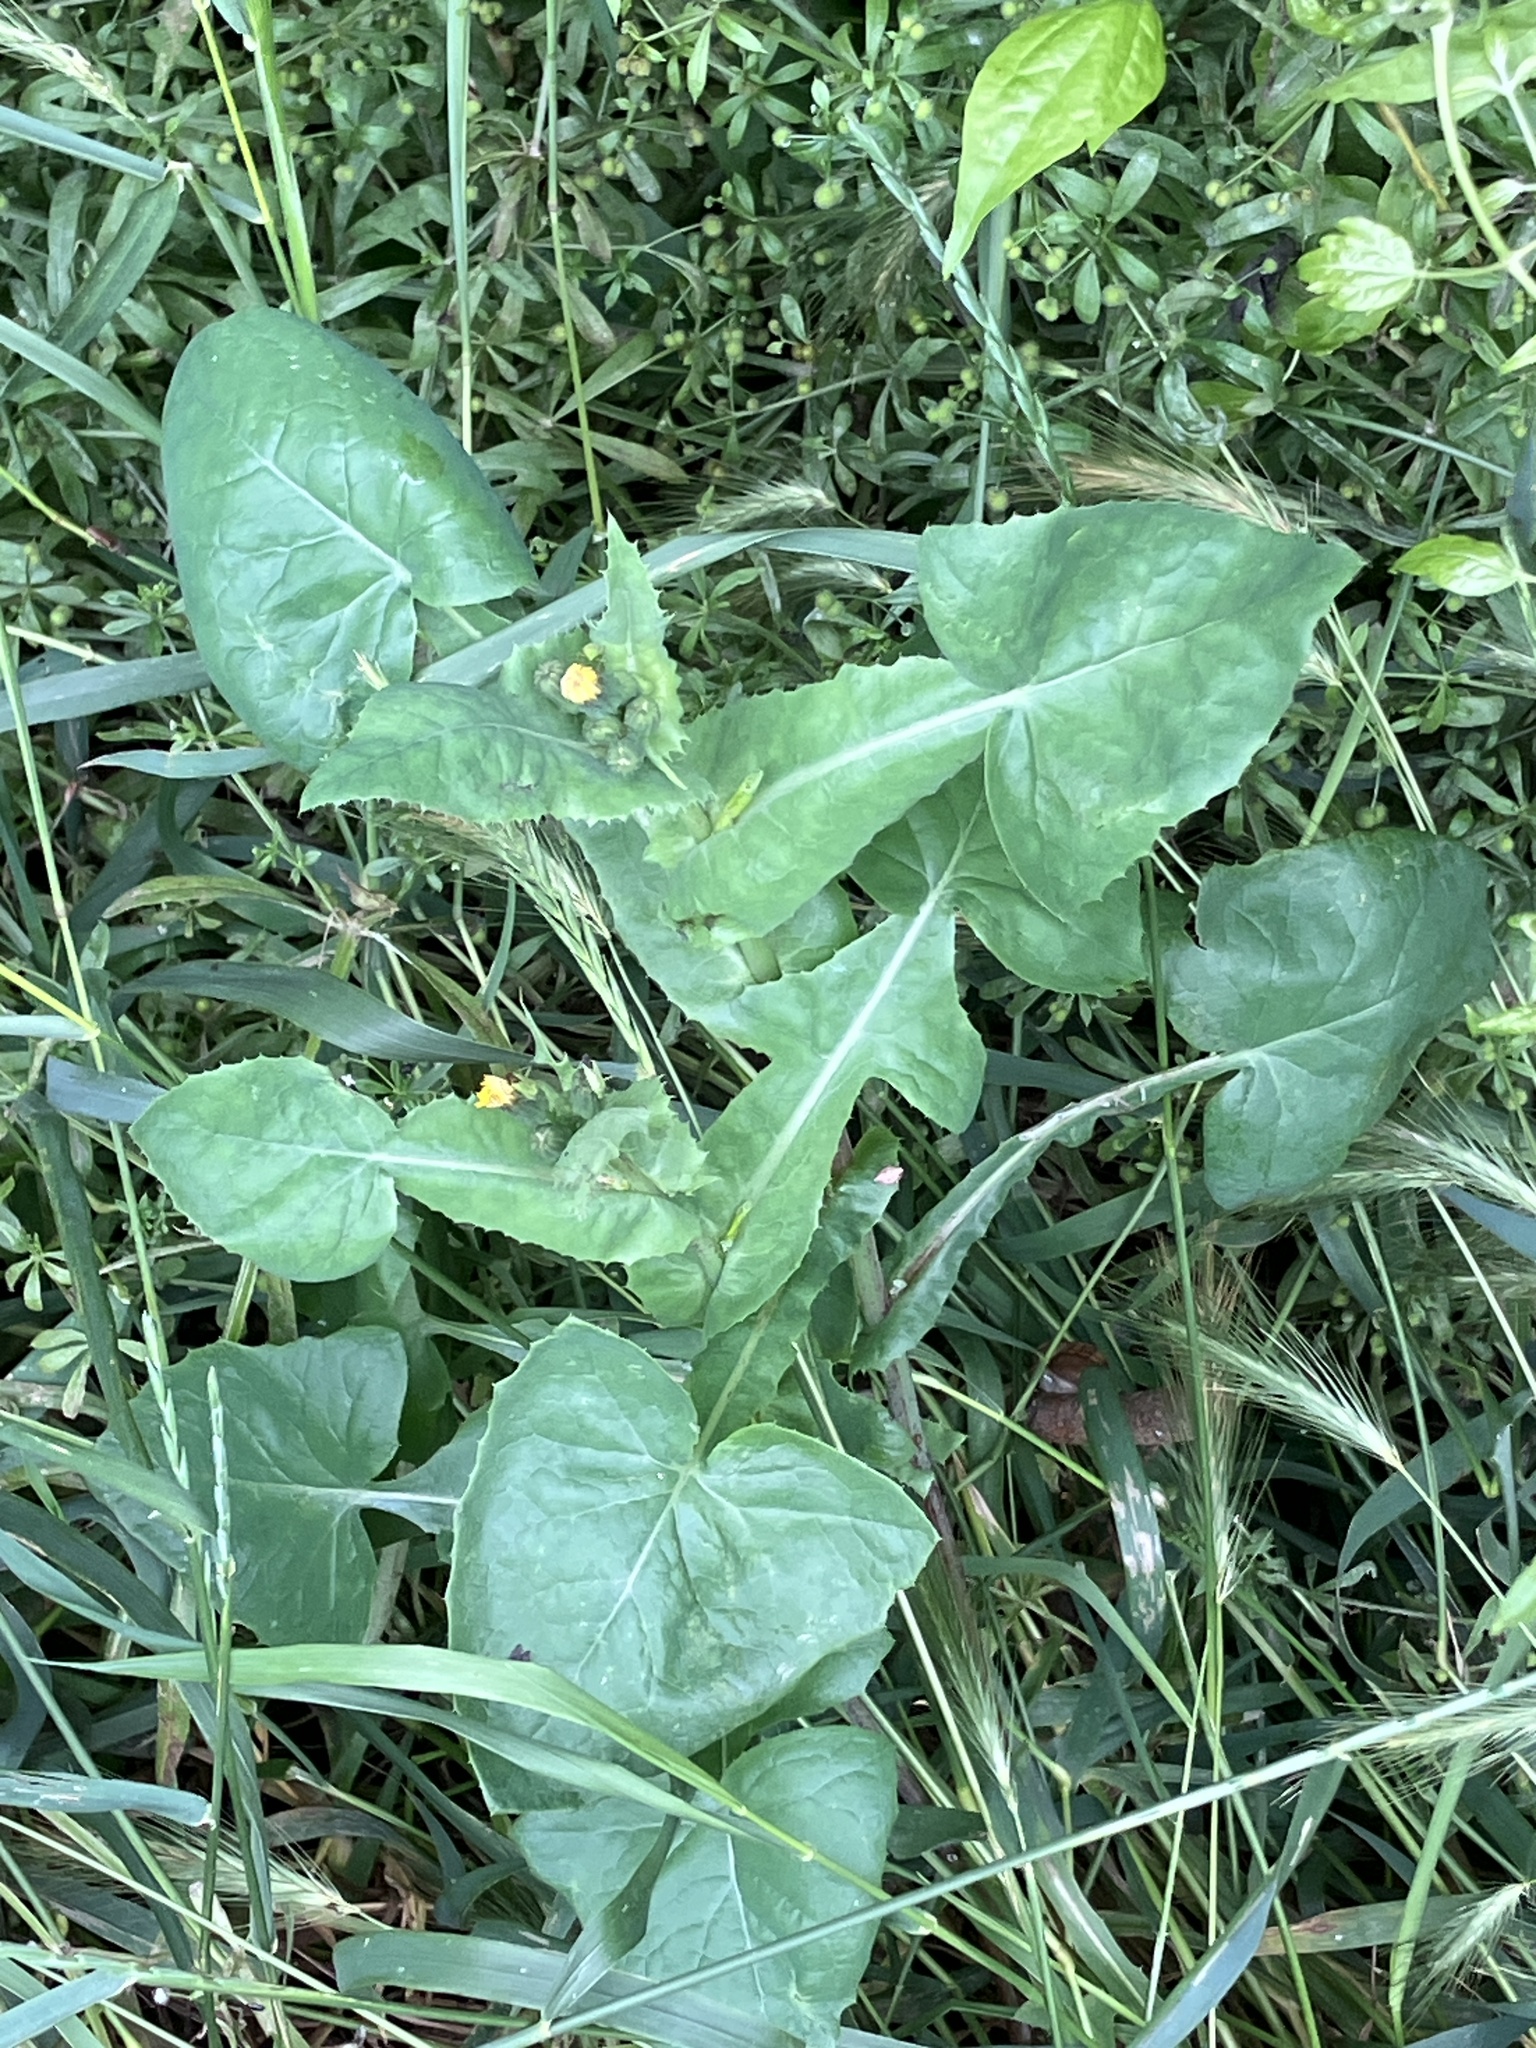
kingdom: Plantae
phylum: Tracheophyta
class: Magnoliopsida
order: Asterales
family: Asteraceae
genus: Sonchus
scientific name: Sonchus oleraceus
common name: Common sowthistle
